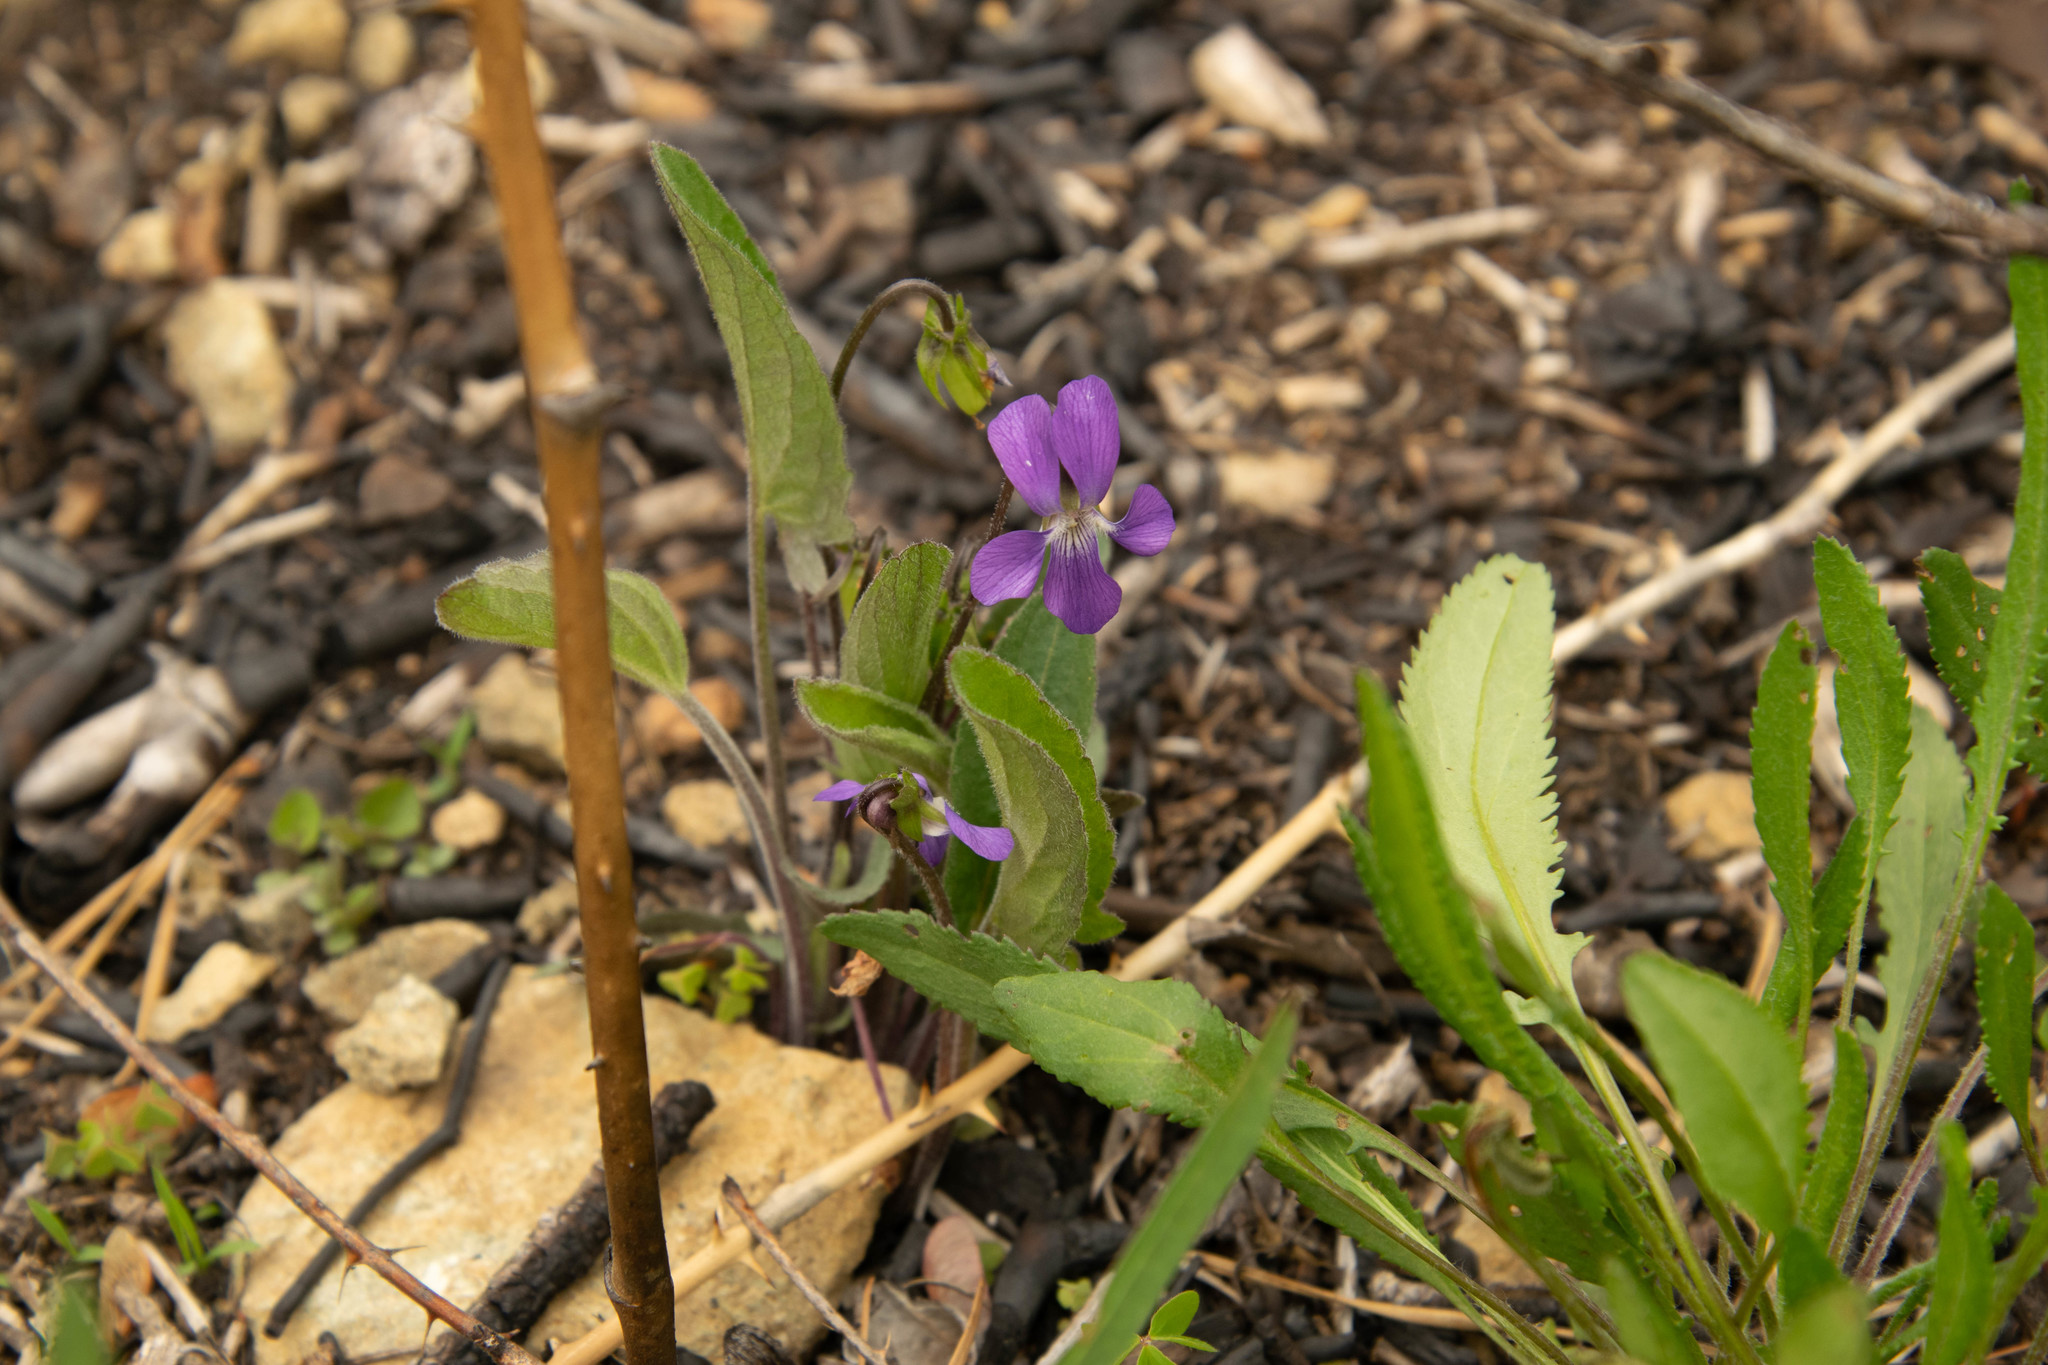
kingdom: Plantae
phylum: Tracheophyta
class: Magnoliopsida
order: Malpighiales
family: Violaceae
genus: Viola
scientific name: Viola sagittata
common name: Arrowhead violet
